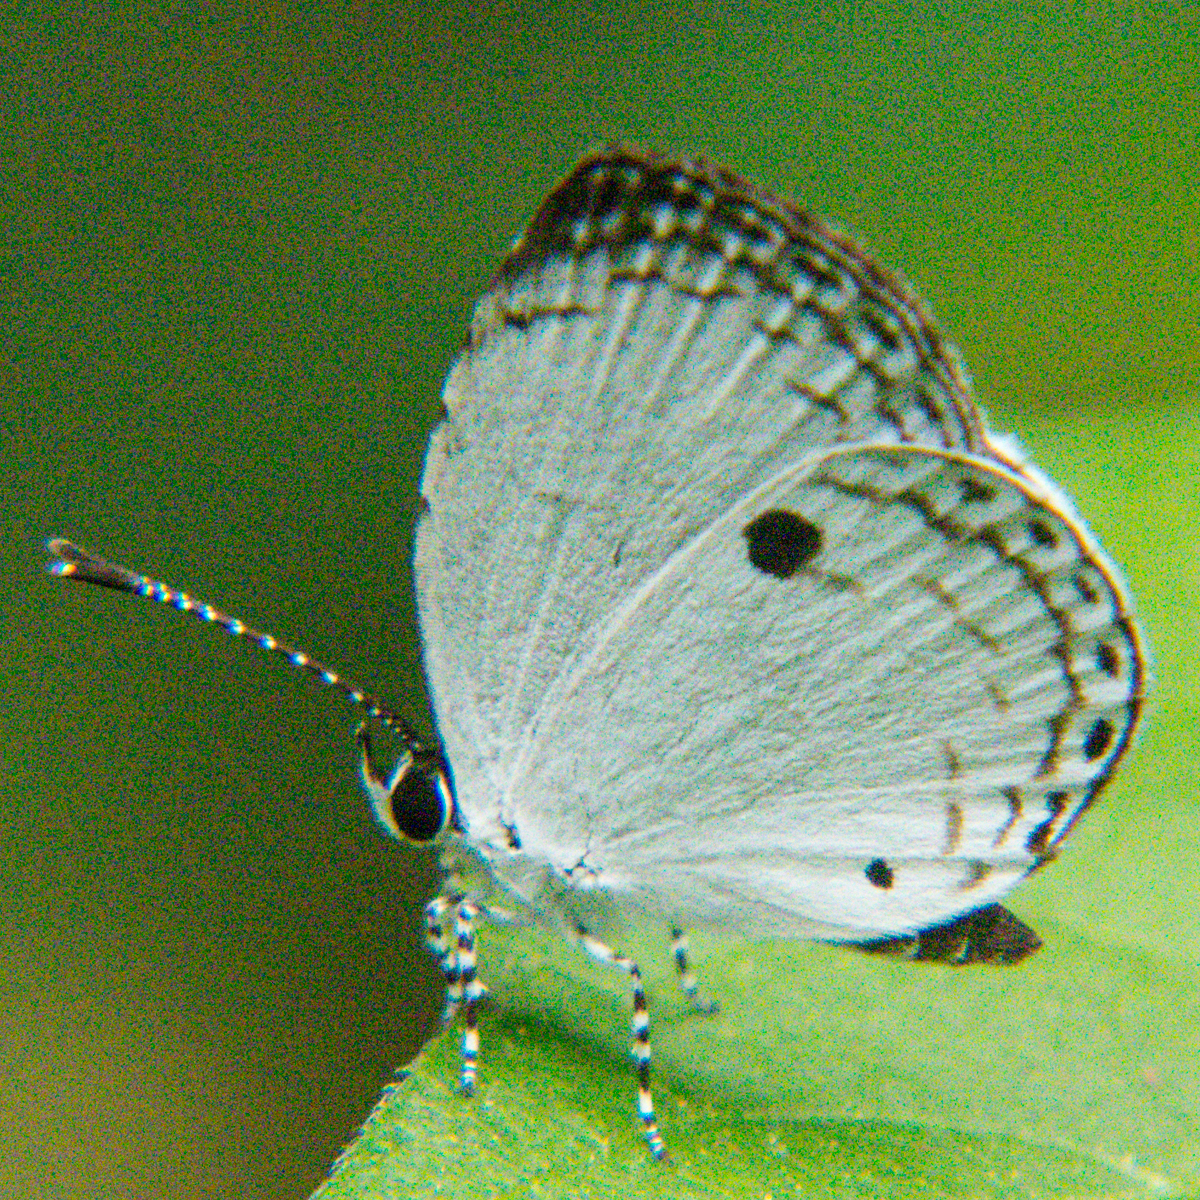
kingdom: Animalia
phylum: Arthropoda
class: Insecta
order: Lepidoptera
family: Lycaenidae
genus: Neopithecops
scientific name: Neopithecops zalmora
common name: Quaker
